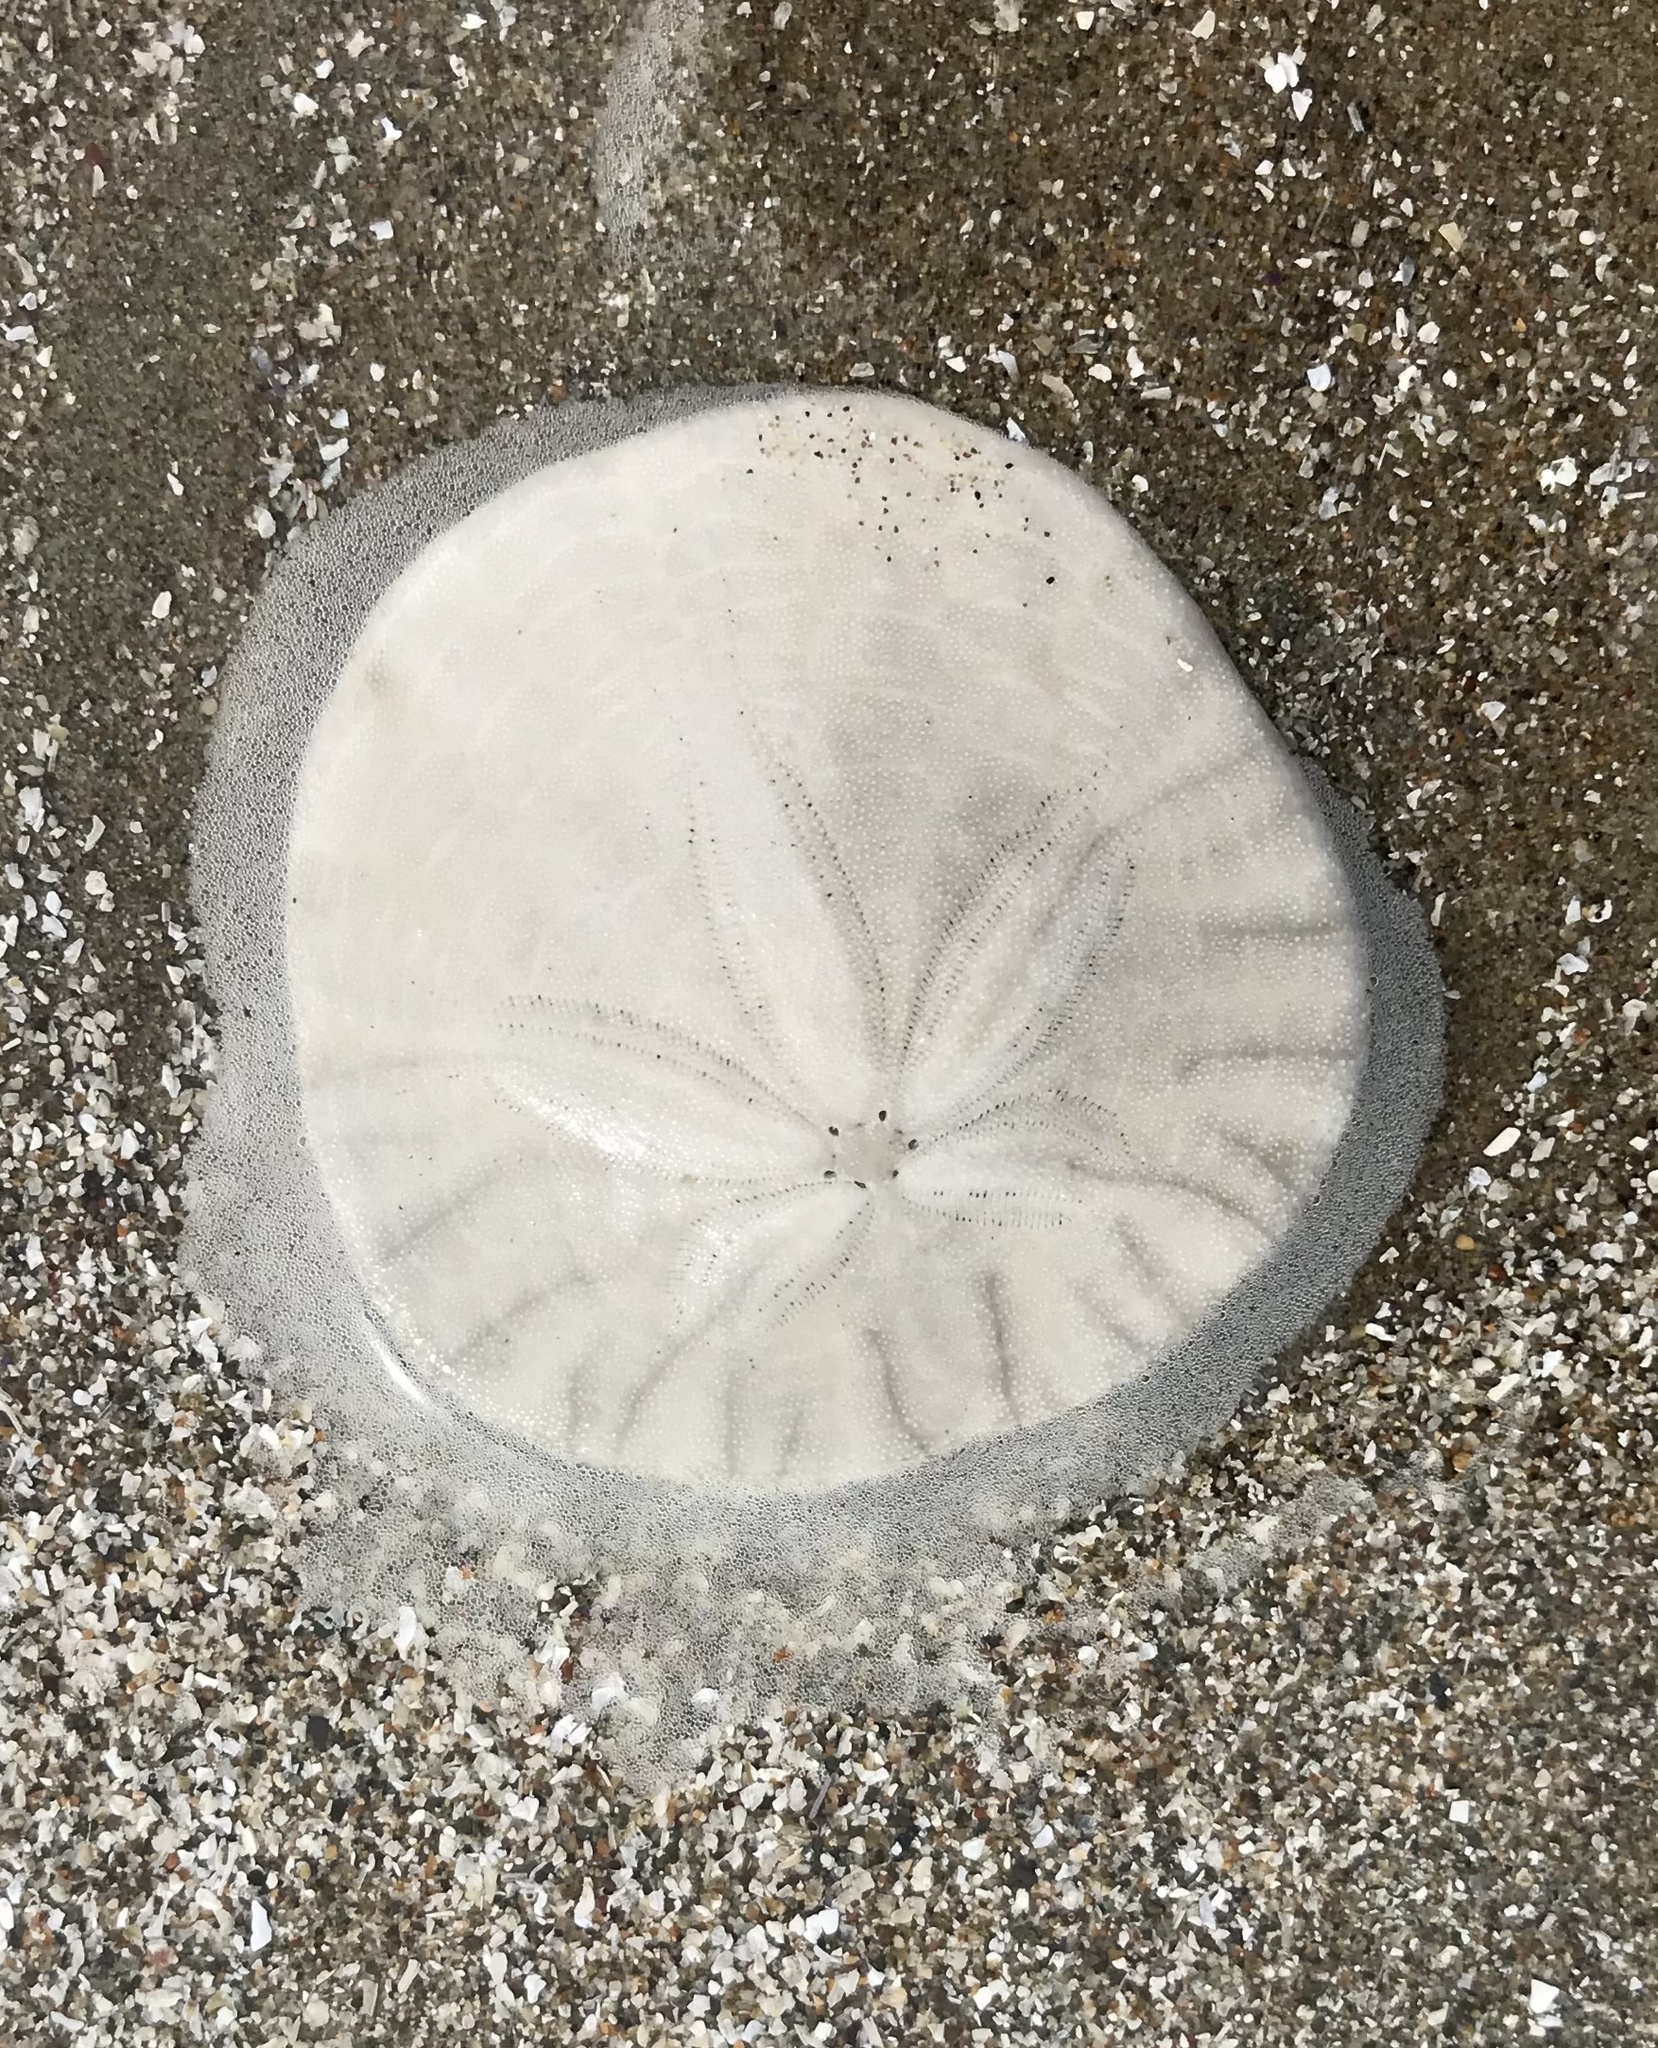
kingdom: Animalia
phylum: Echinodermata
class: Echinoidea
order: Echinolampadacea
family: Dendrasteridae
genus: Dendraster
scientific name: Dendraster excentricus
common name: Eccentric sand dollar sea urchin
